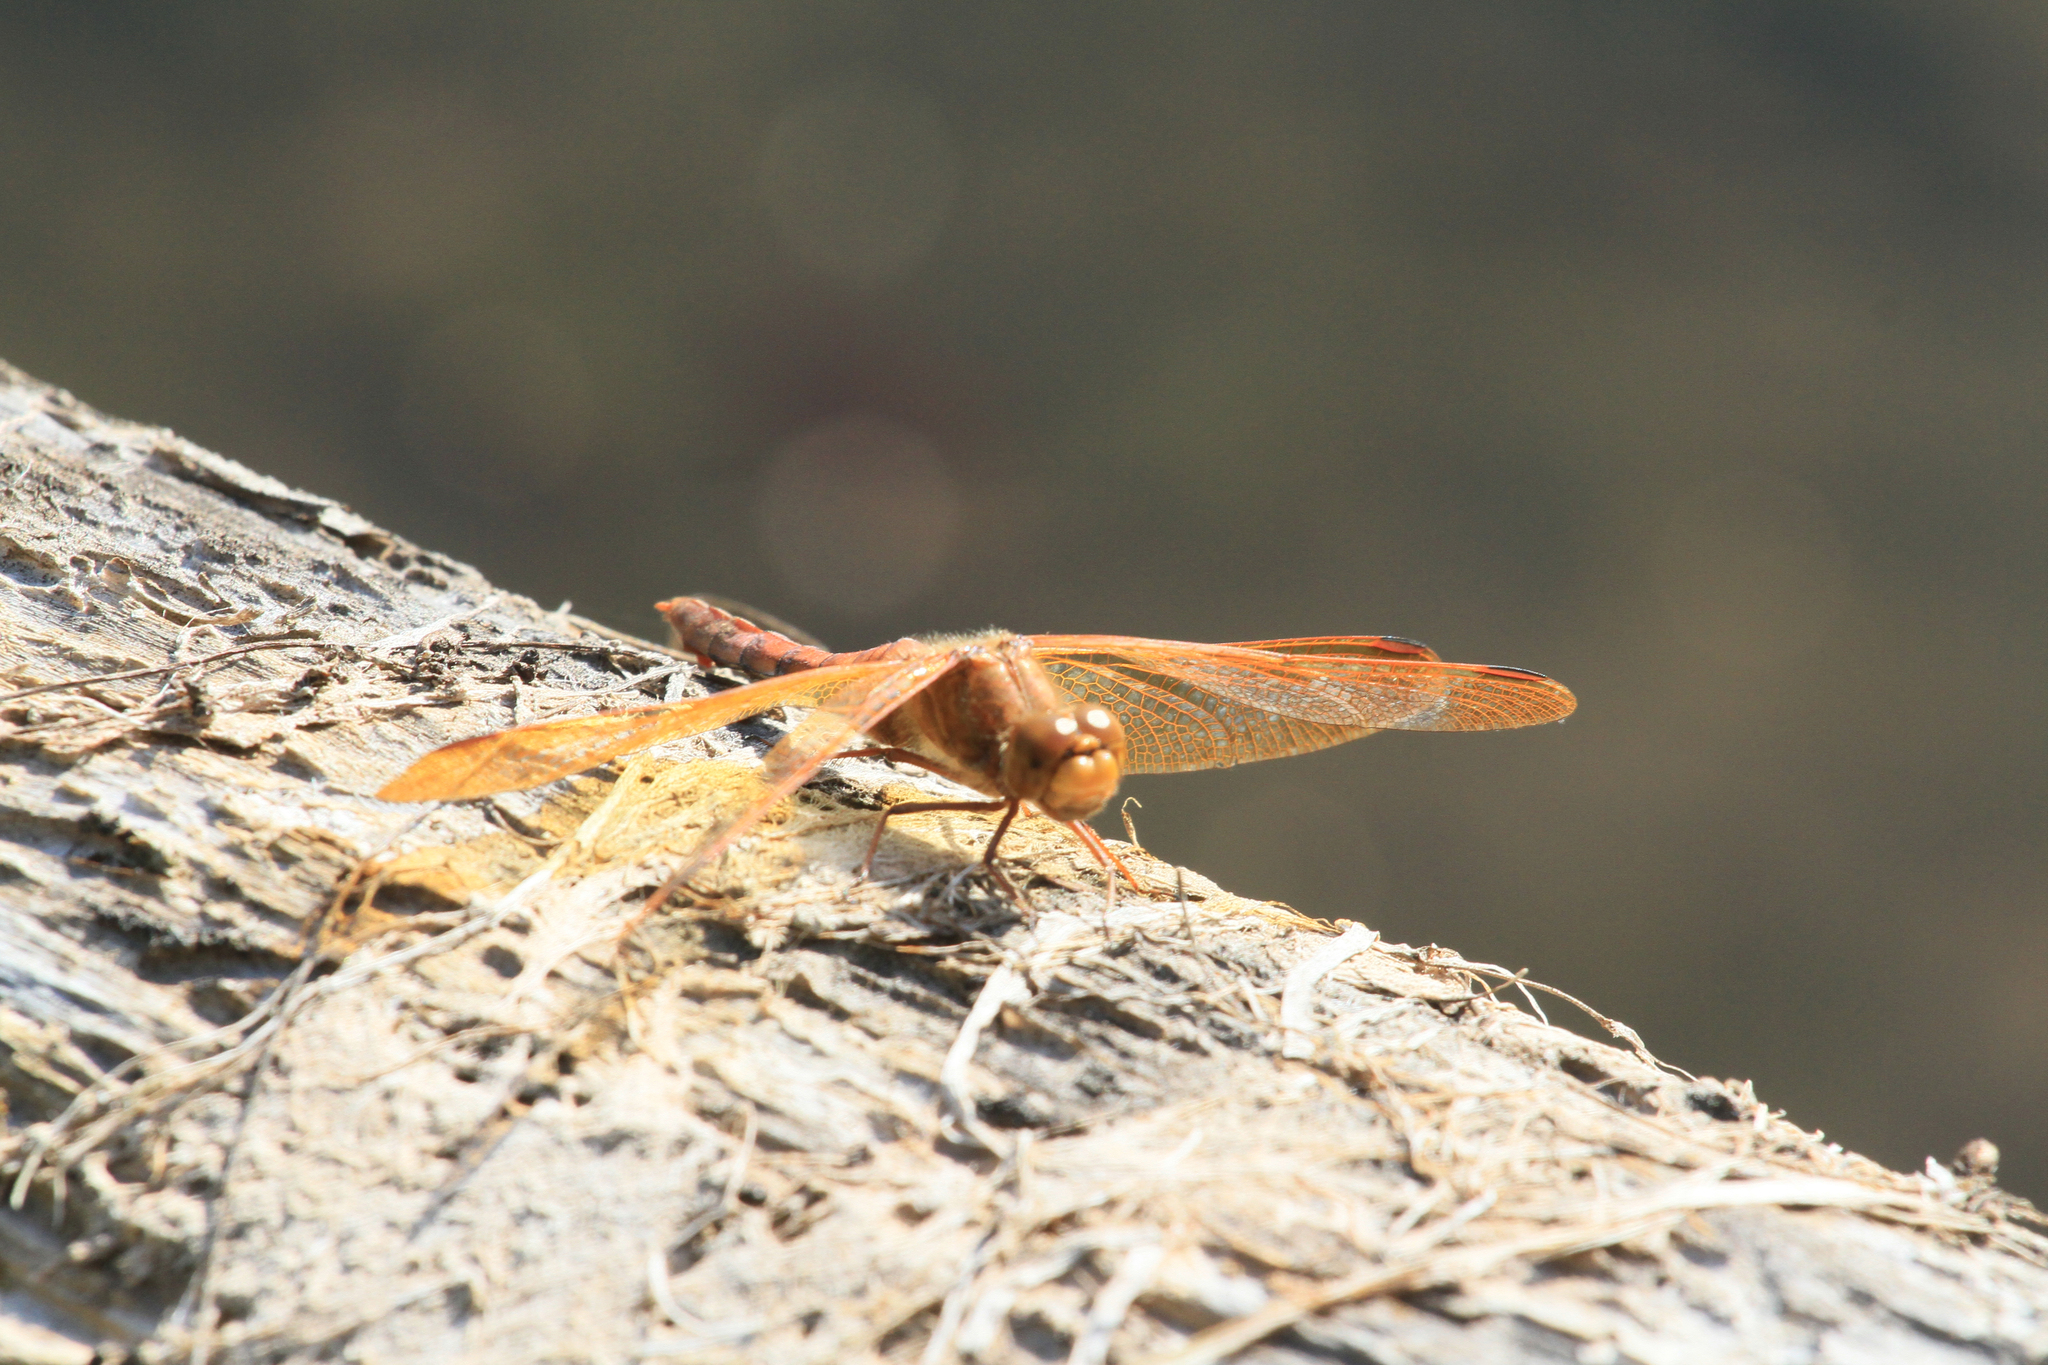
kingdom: Animalia
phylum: Arthropoda
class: Insecta
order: Odonata
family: Libellulidae
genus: Sympetrum
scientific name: Sympetrum croceolum
